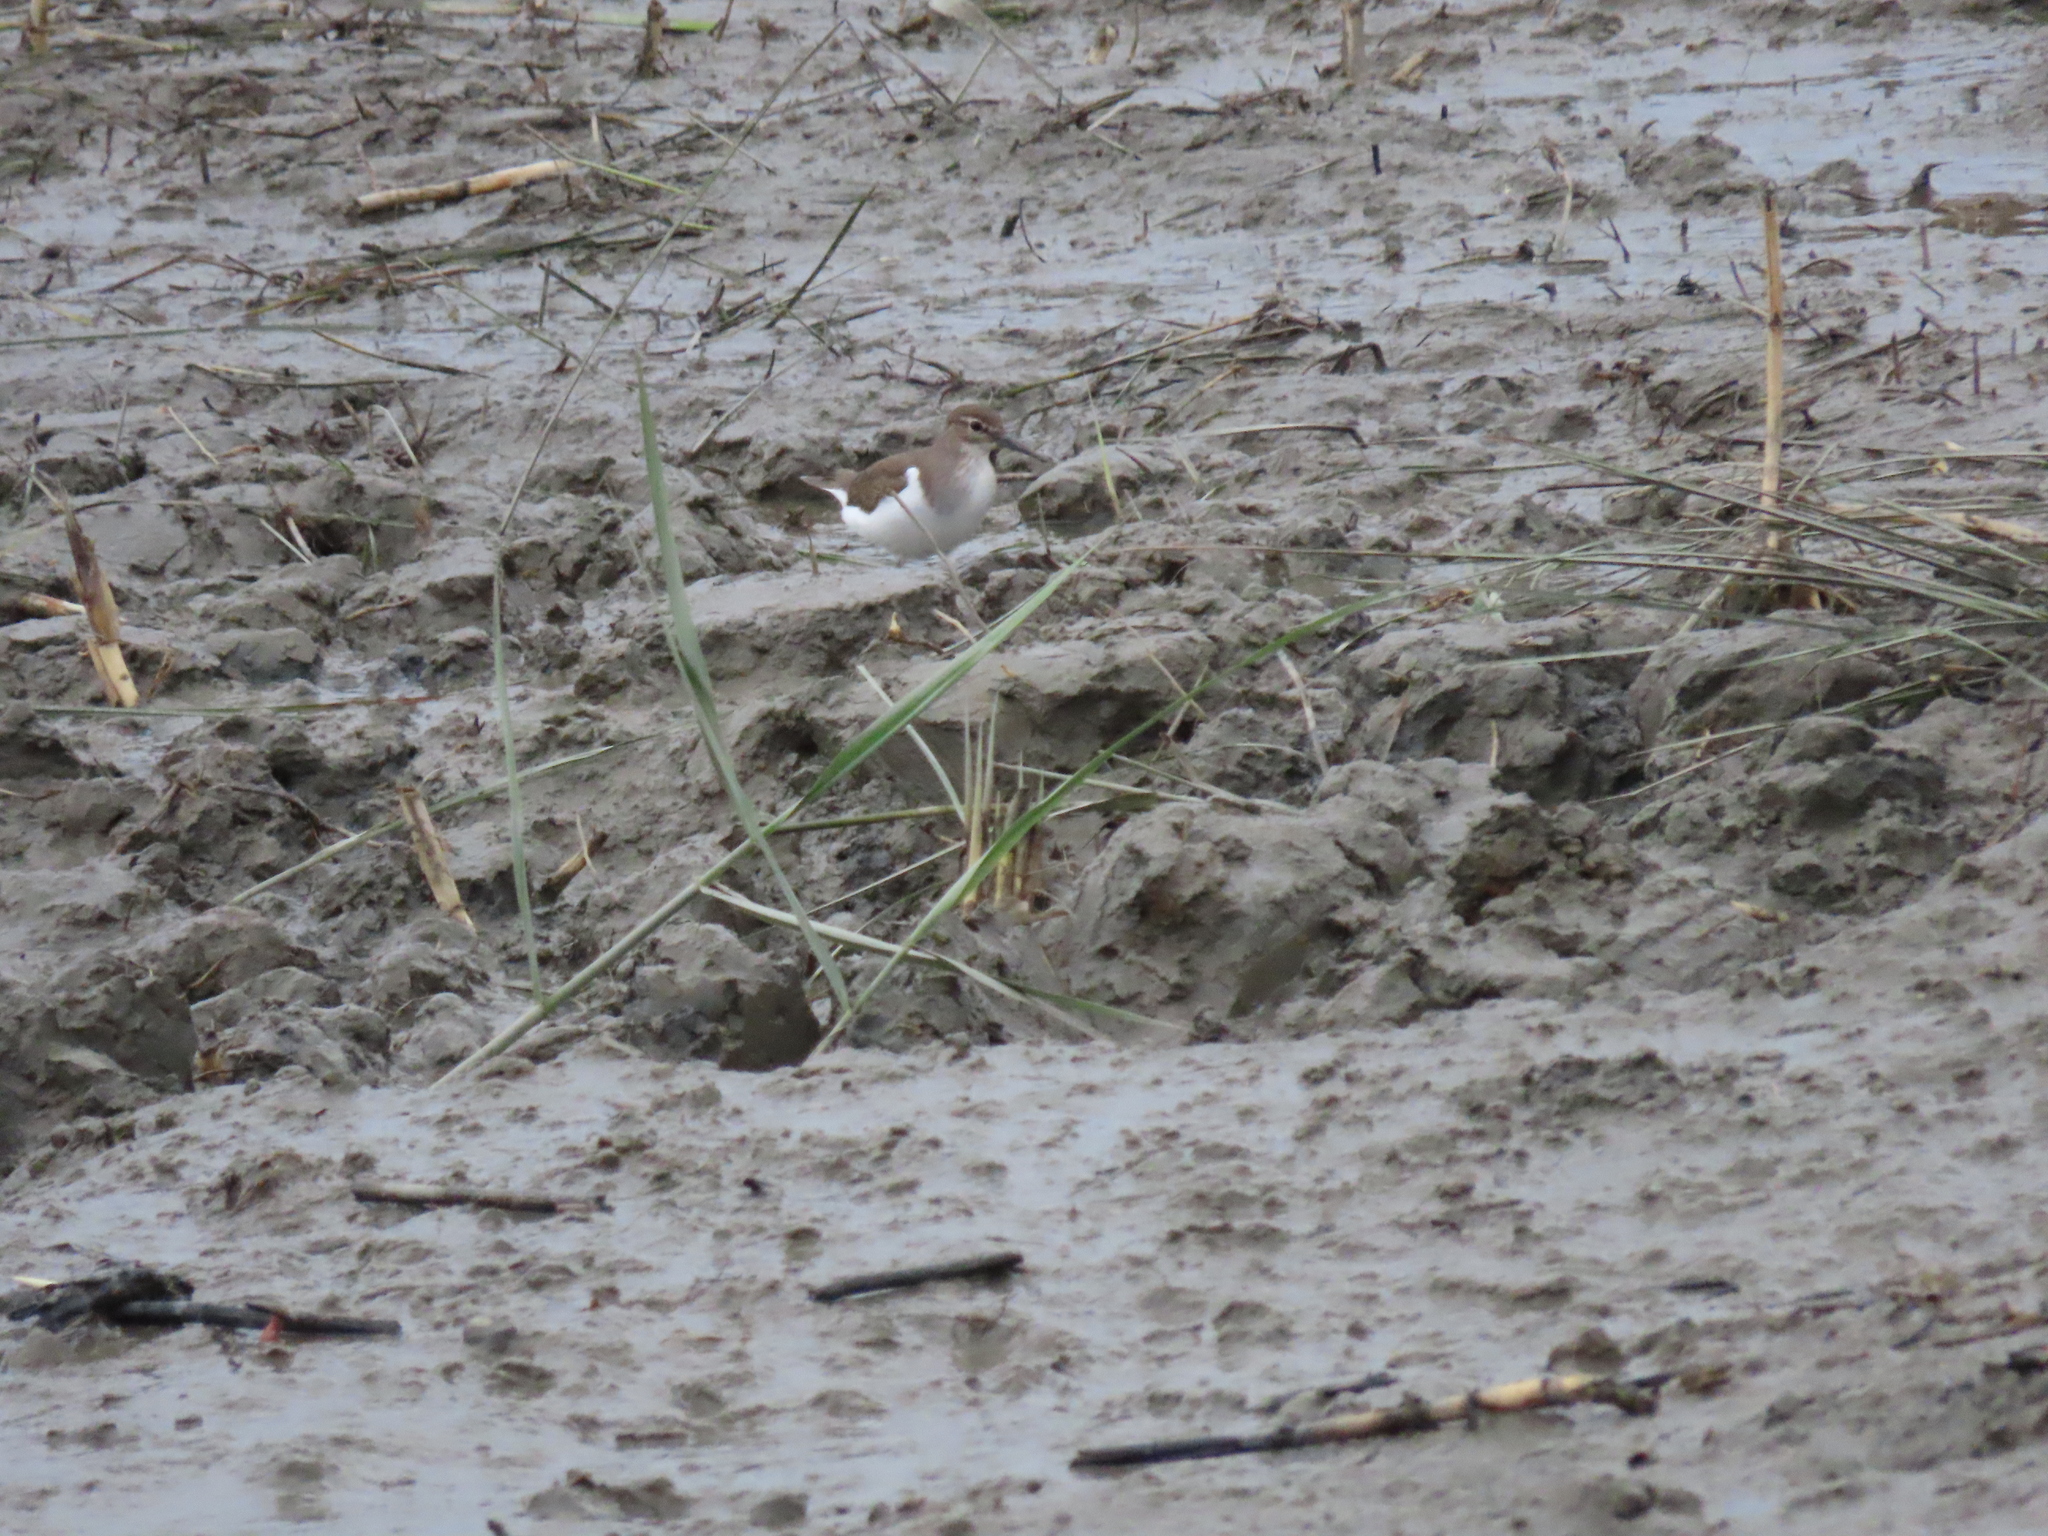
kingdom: Animalia
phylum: Chordata
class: Aves
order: Charadriiformes
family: Scolopacidae
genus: Actitis
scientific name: Actitis hypoleucos
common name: Common sandpiper
